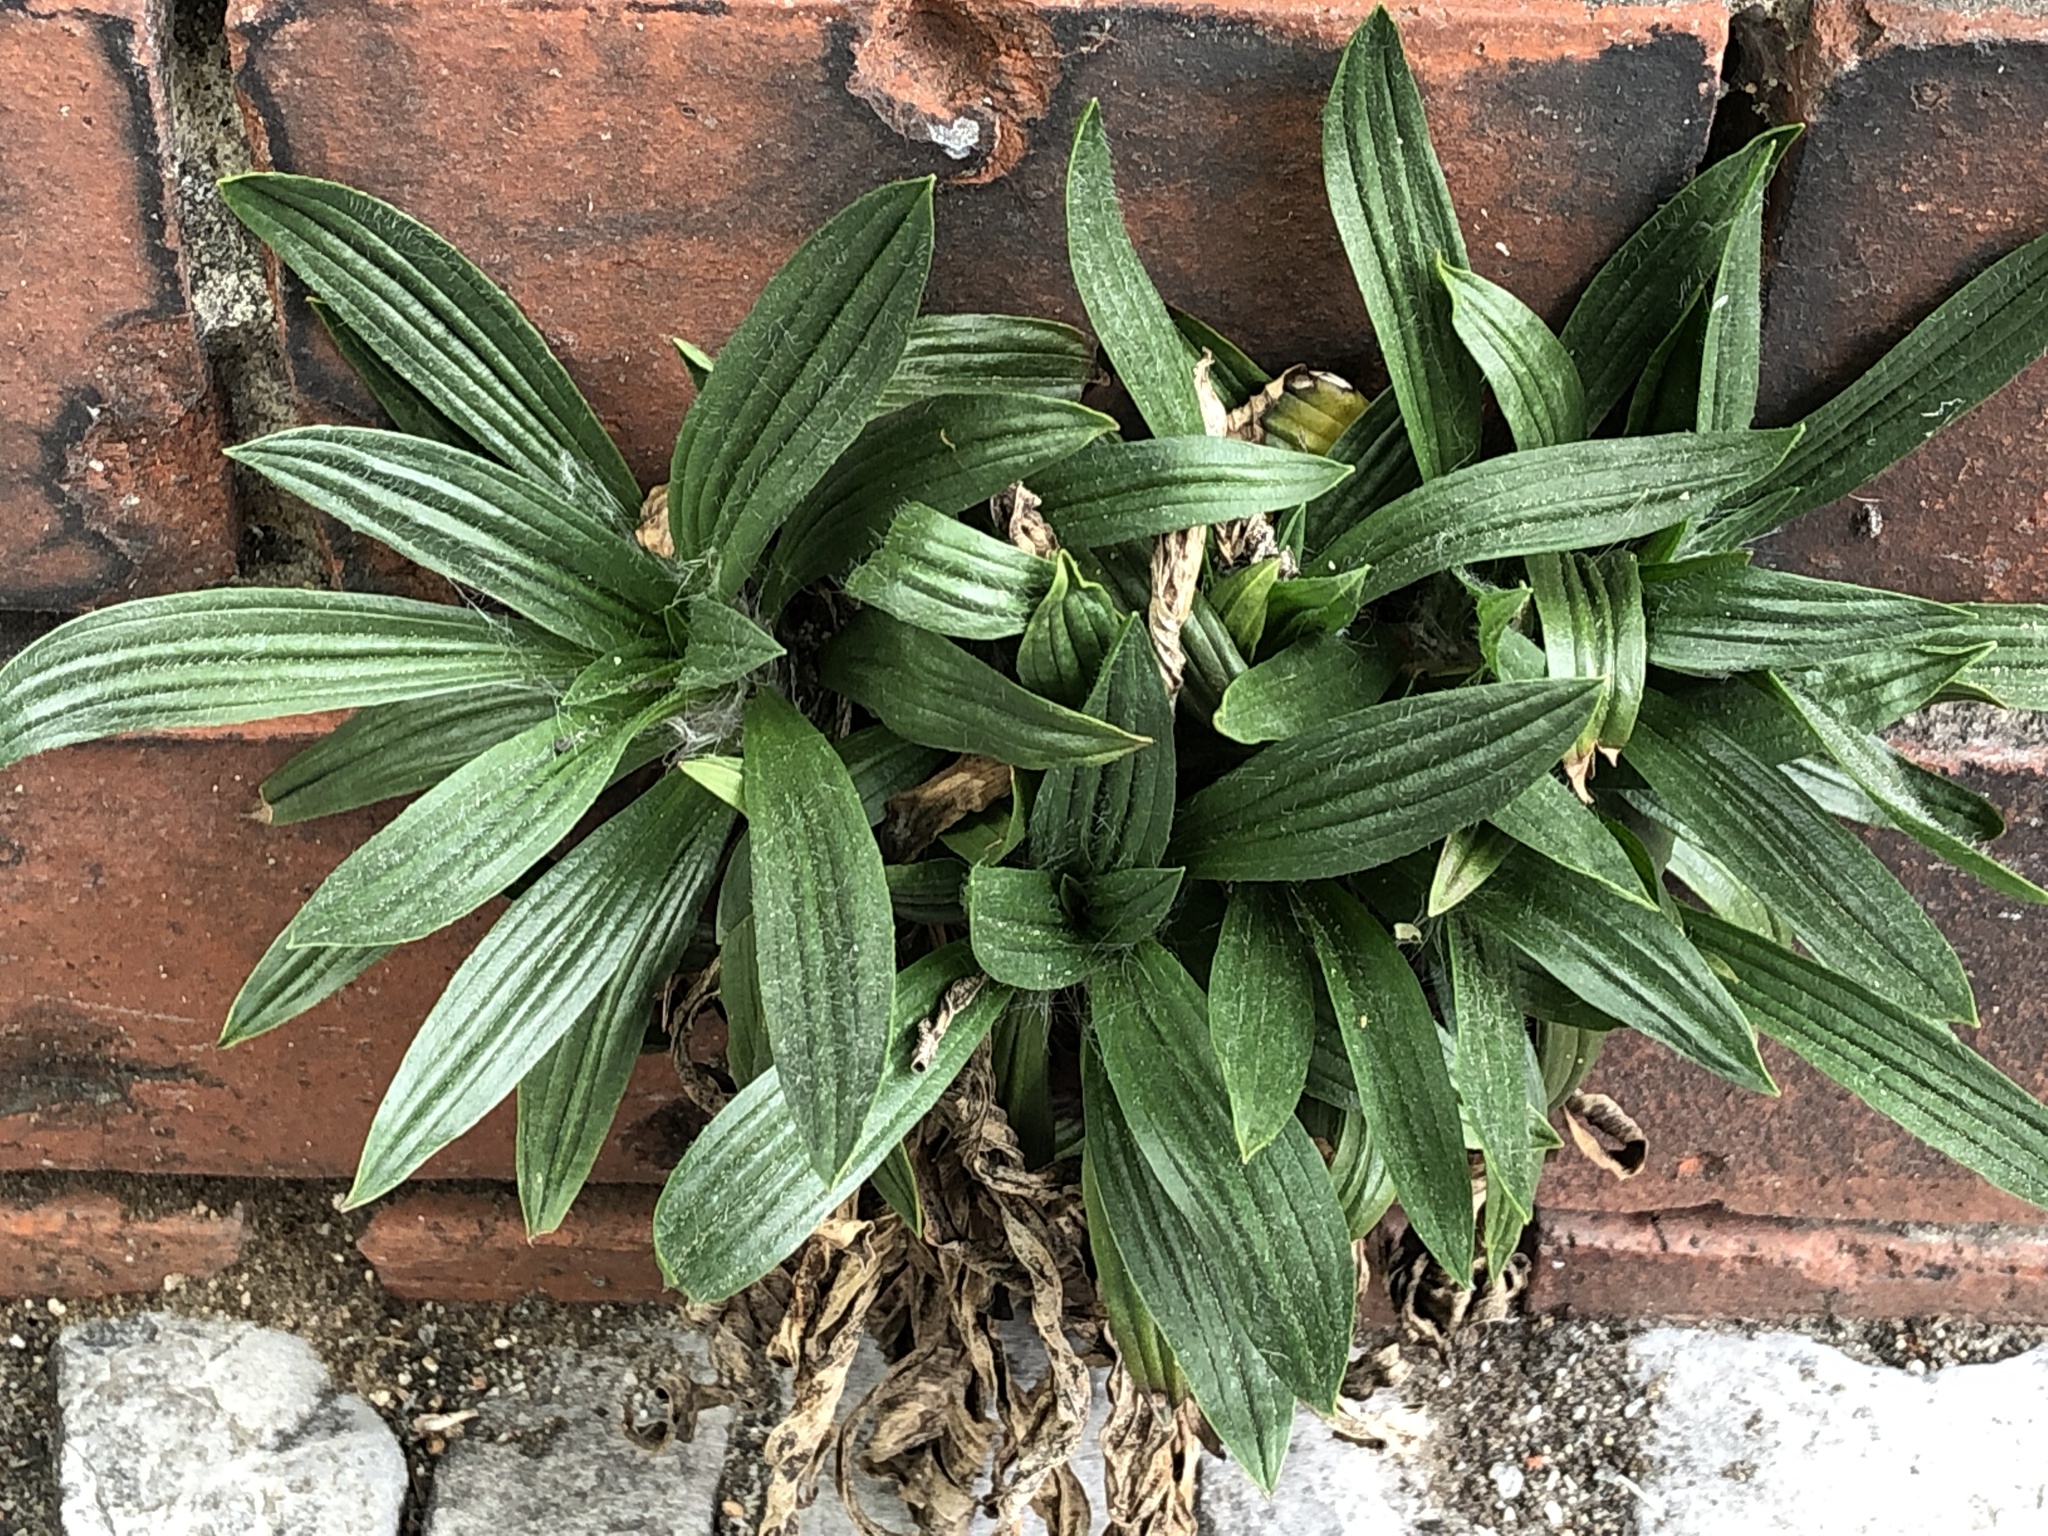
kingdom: Plantae
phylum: Tracheophyta
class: Magnoliopsida
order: Lamiales
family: Plantaginaceae
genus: Plantago
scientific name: Plantago lanceolata
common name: Ribwort plantain
